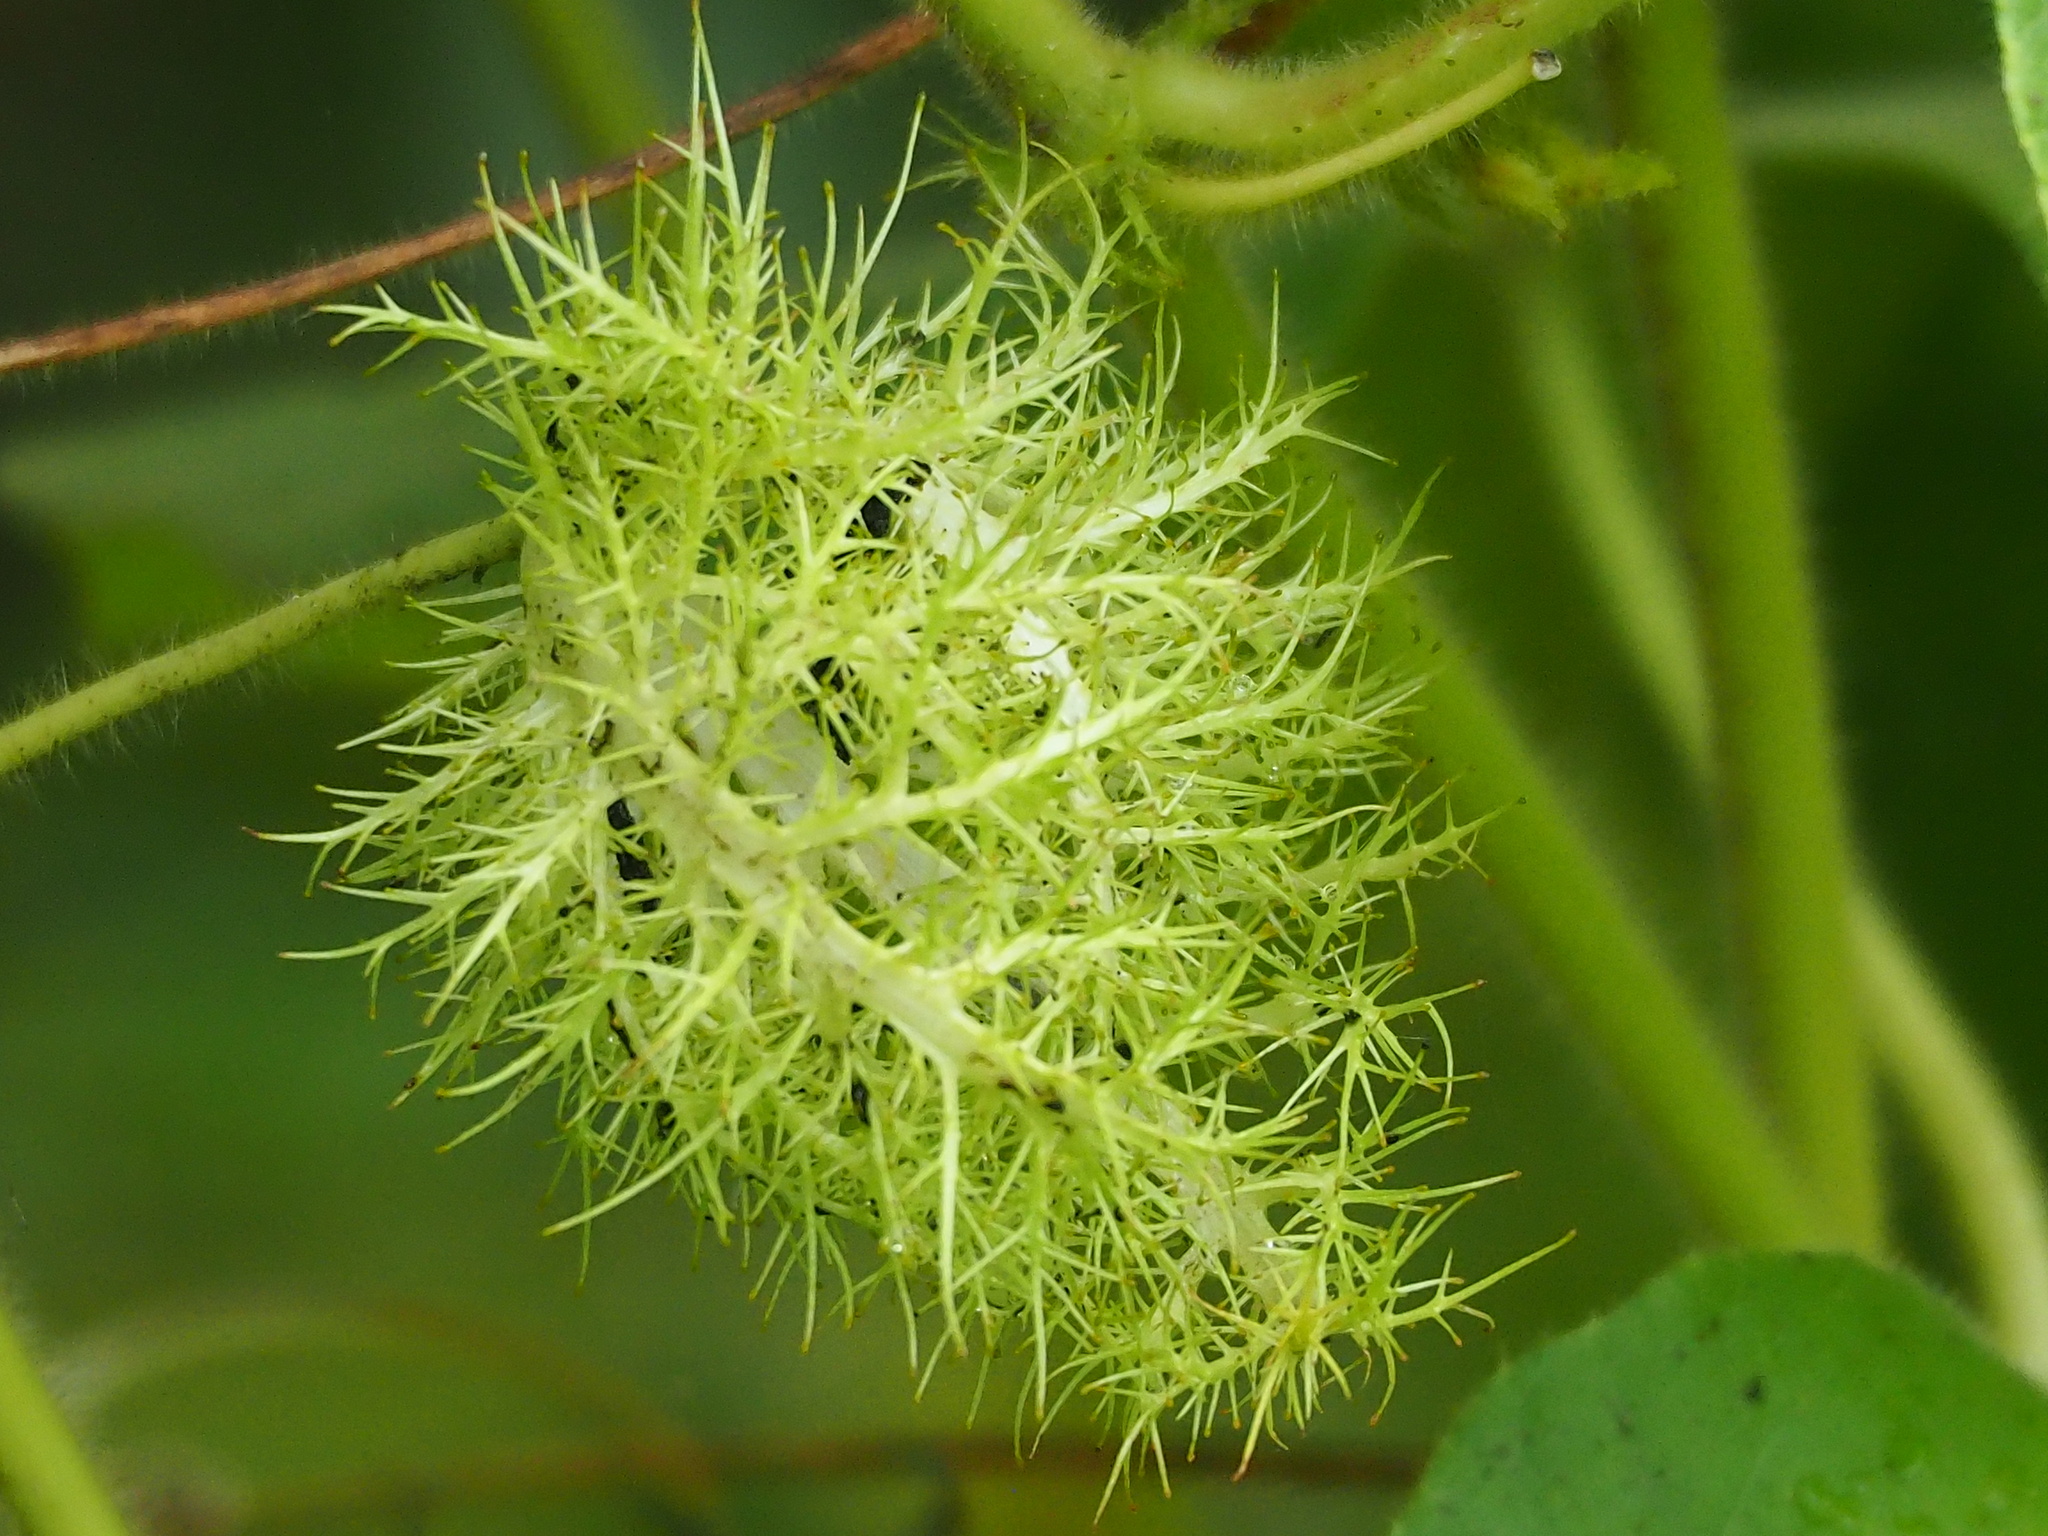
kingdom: Plantae
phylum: Tracheophyta
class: Magnoliopsida
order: Malpighiales
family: Passifloraceae
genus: Passiflora
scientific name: Passiflora vesicaria
